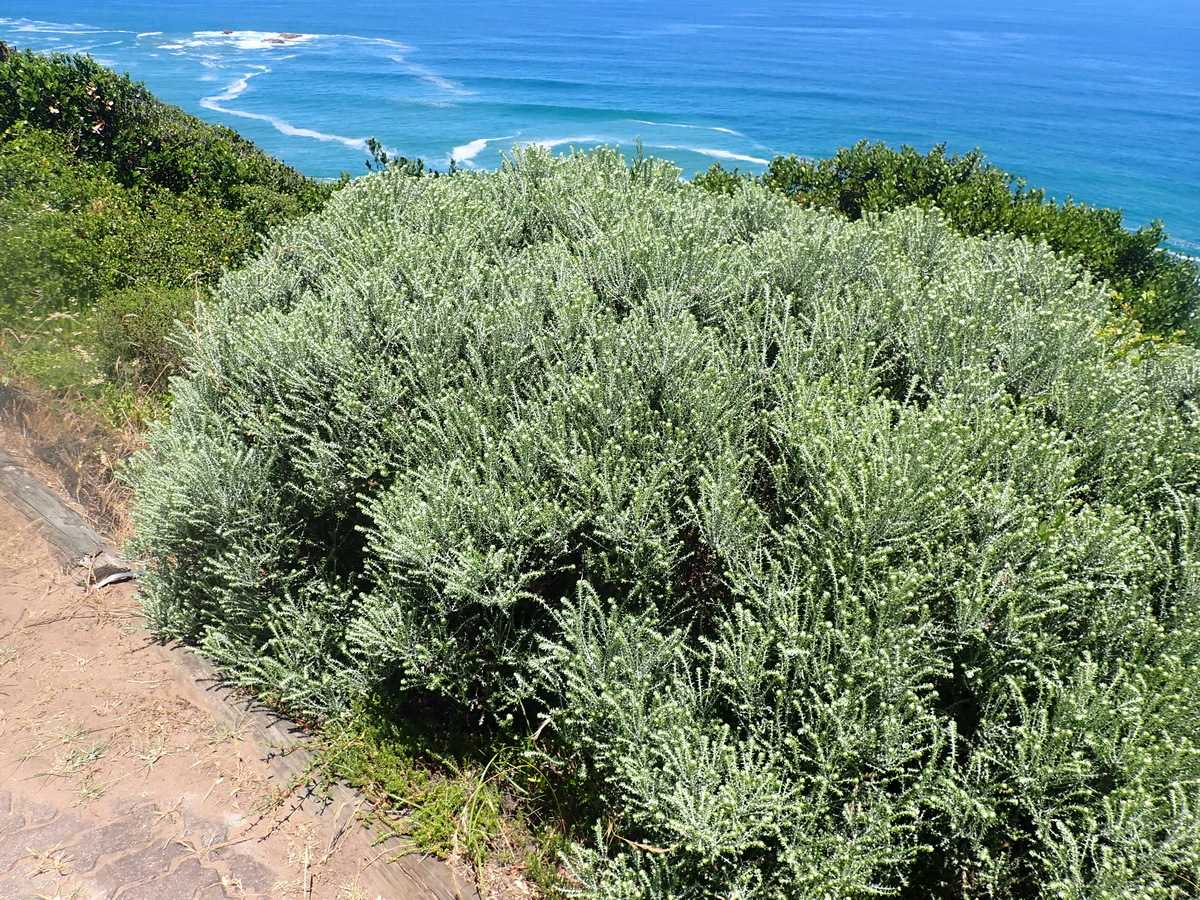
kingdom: Plantae
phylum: Tracheophyta
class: Magnoliopsida
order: Asterales
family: Asteraceae
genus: Metalasia
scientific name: Metalasia muricata
